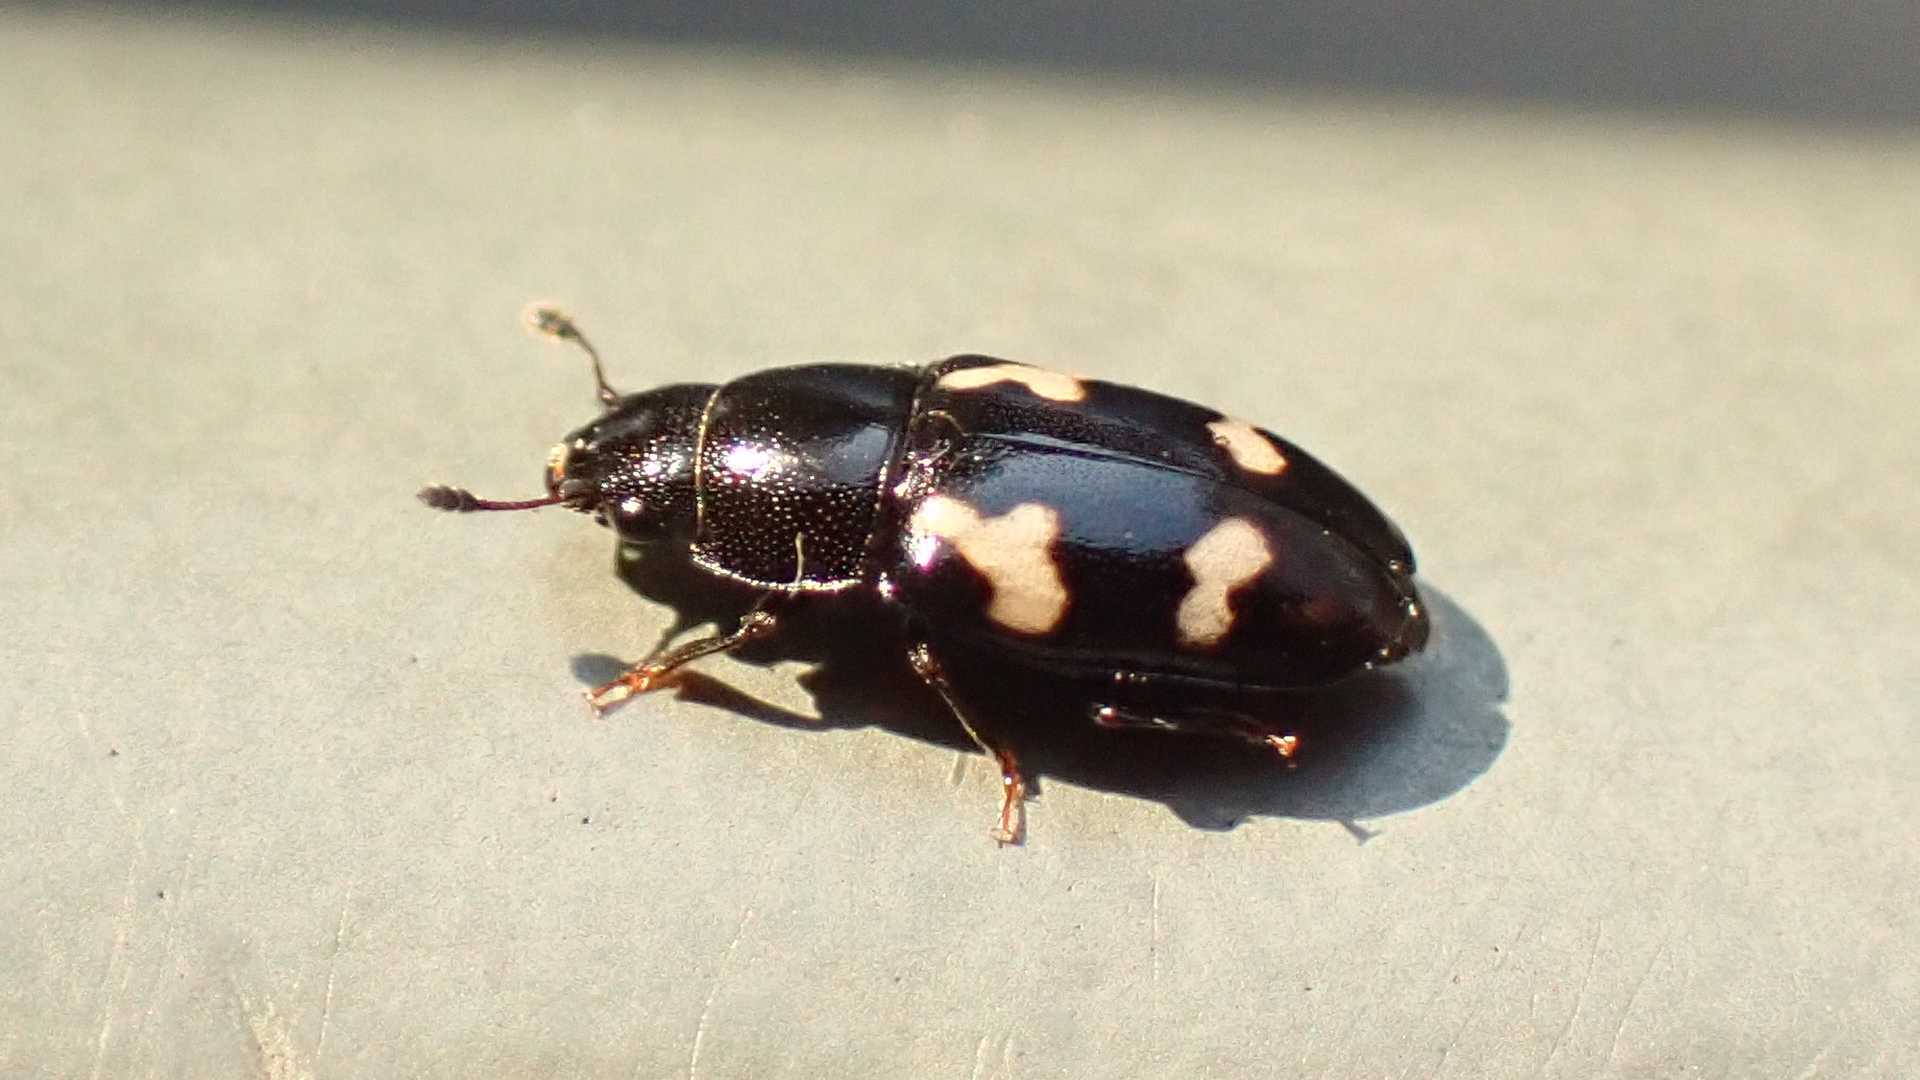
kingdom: Animalia
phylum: Arthropoda
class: Insecta
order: Coleoptera
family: Nitidulidae
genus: Glischrochilus
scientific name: Glischrochilus quadriguttatus
